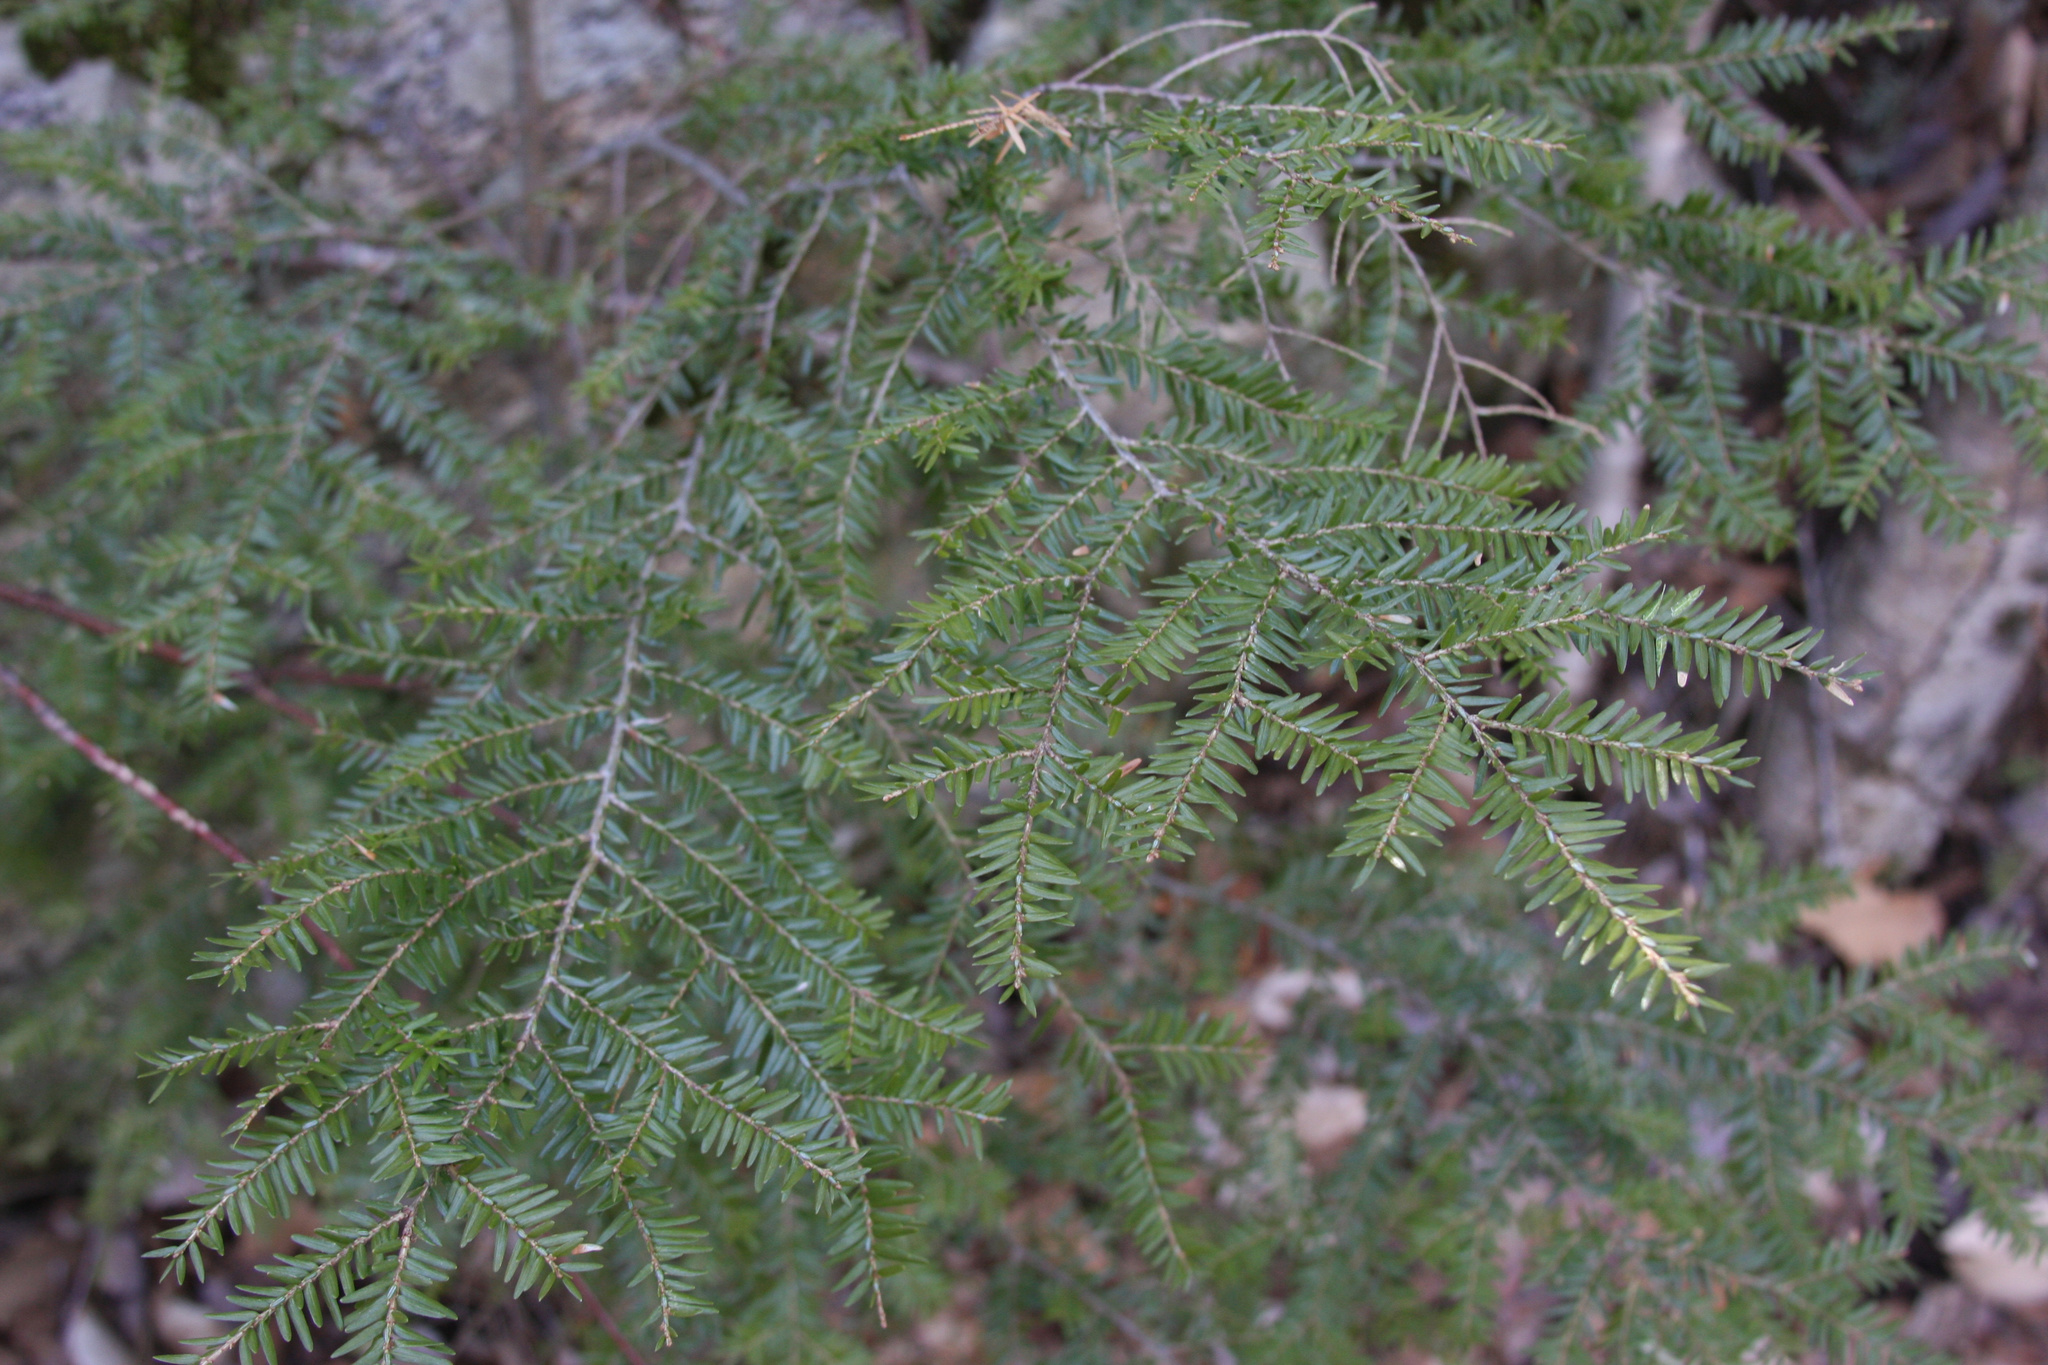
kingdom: Plantae
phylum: Tracheophyta
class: Pinopsida
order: Pinales
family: Pinaceae
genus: Tsuga
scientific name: Tsuga canadensis
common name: Eastern hemlock
